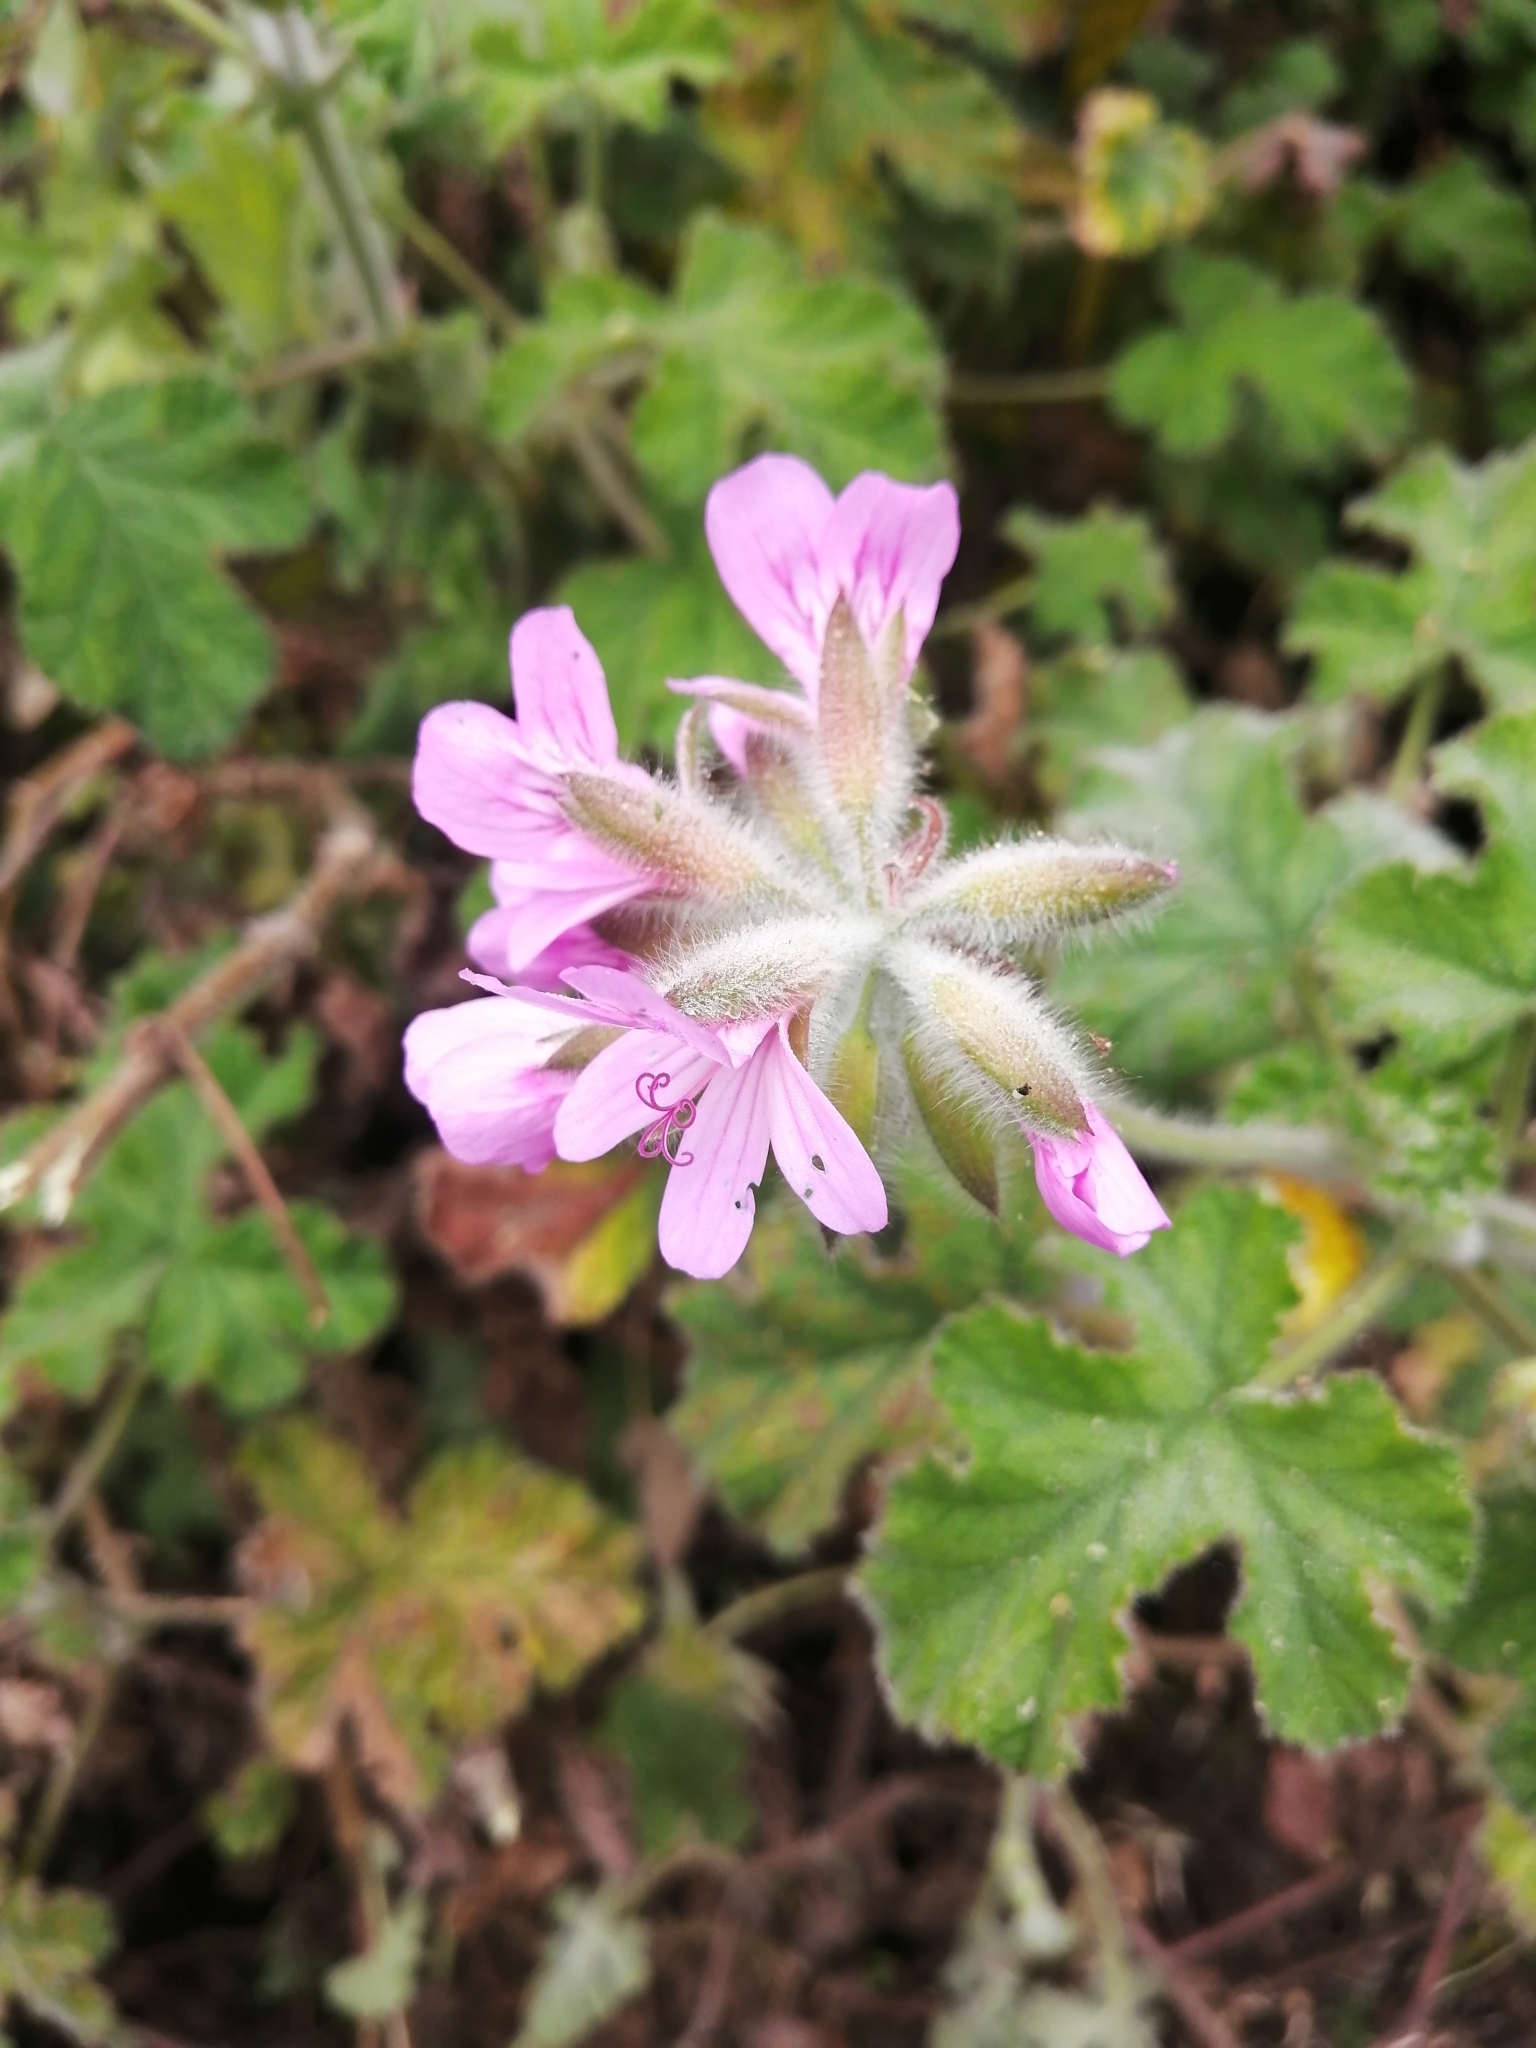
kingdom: Plantae
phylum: Tracheophyta
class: Magnoliopsida
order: Geraniales
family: Geraniaceae
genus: Pelargonium
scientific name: Pelargonium capitatum
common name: Rose scented geranium
